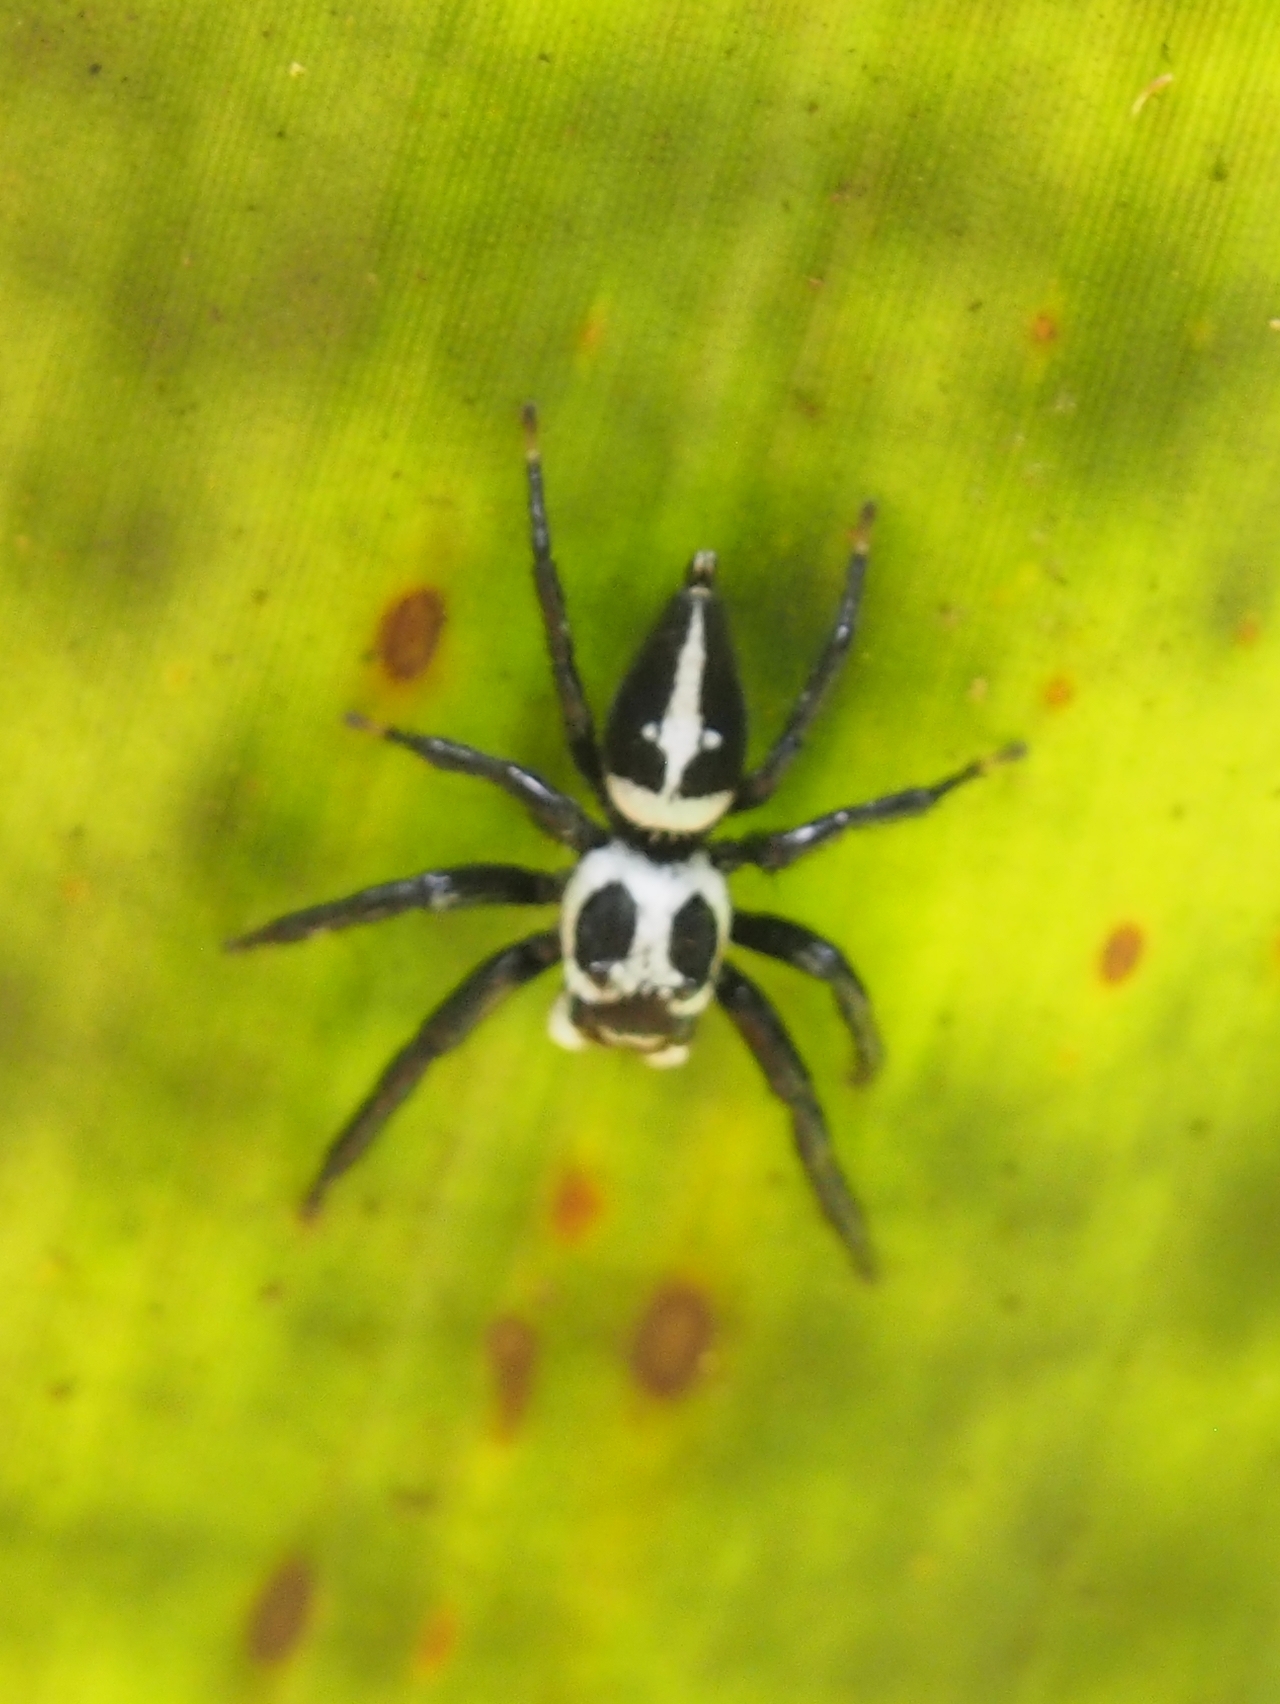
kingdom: Animalia
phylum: Arthropoda
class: Arachnida
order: Araneae
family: Salticidae
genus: Phiale
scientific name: Phiale formosa
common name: Jumping spiders
